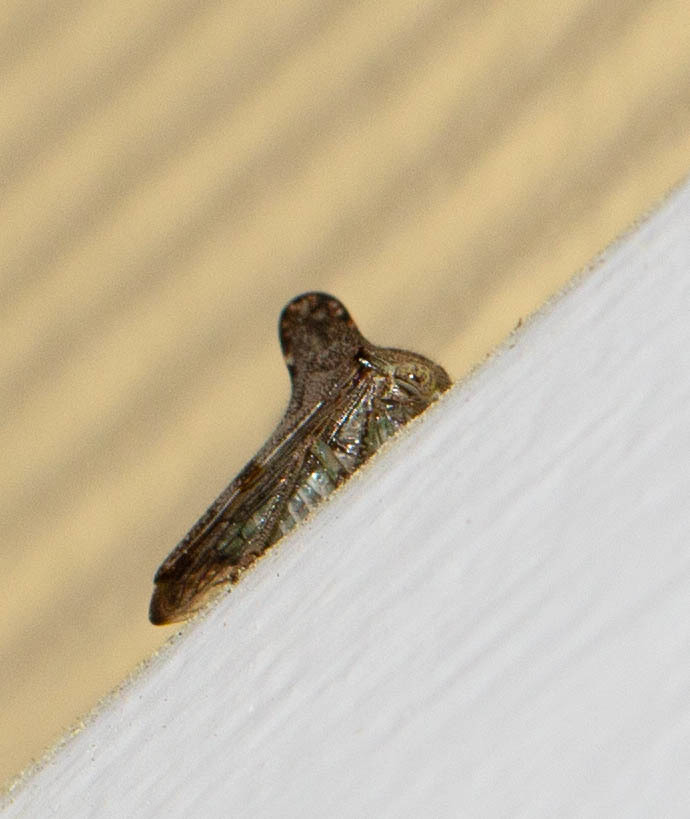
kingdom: Animalia
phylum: Arthropoda
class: Insecta
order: Hemiptera
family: Membracidae
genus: Telonaca
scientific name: Telonaca alta
